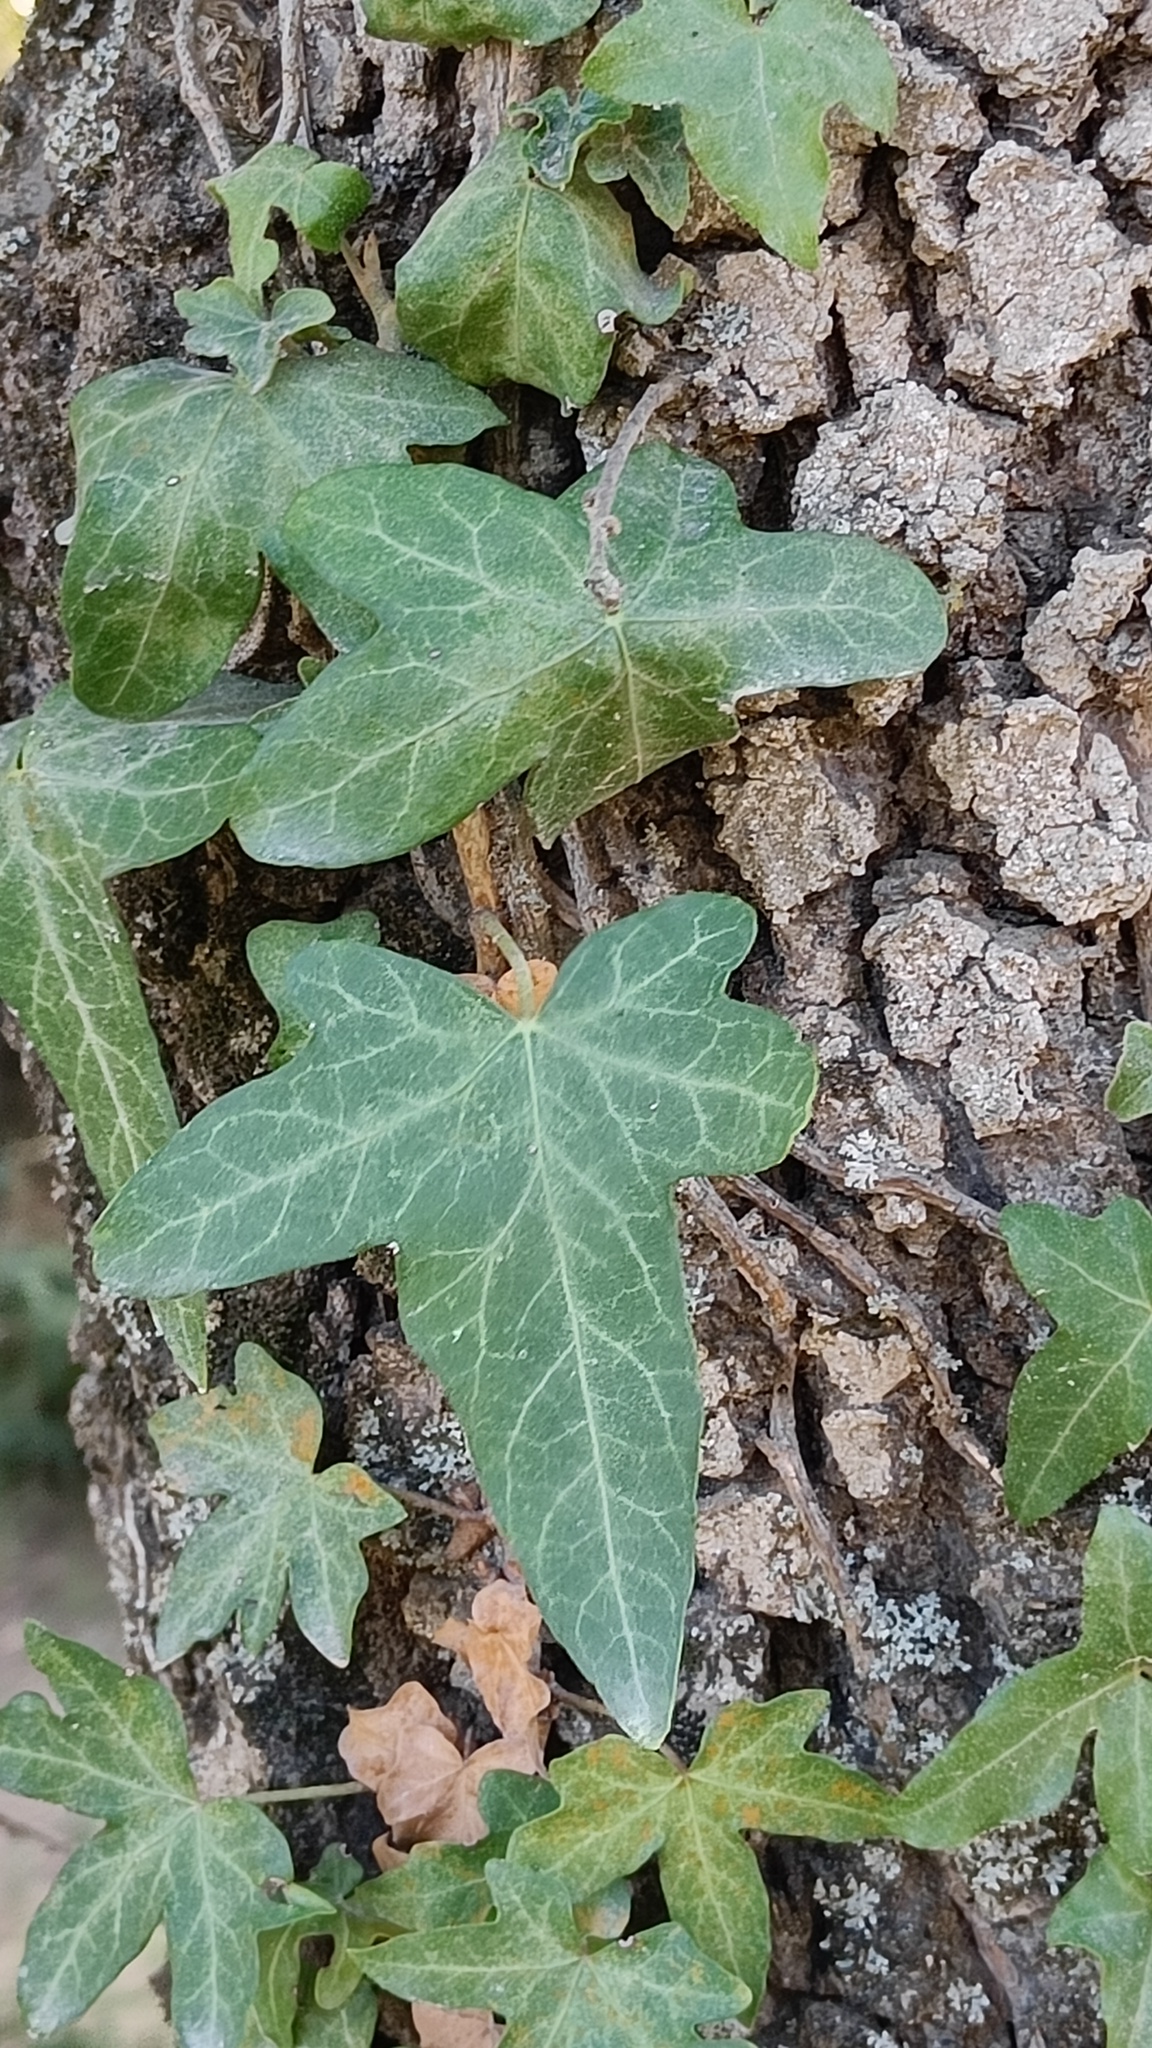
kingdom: Plantae
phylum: Tracheophyta
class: Magnoliopsida
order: Apiales
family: Araliaceae
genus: Hedera
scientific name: Hedera helix
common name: Ivy
